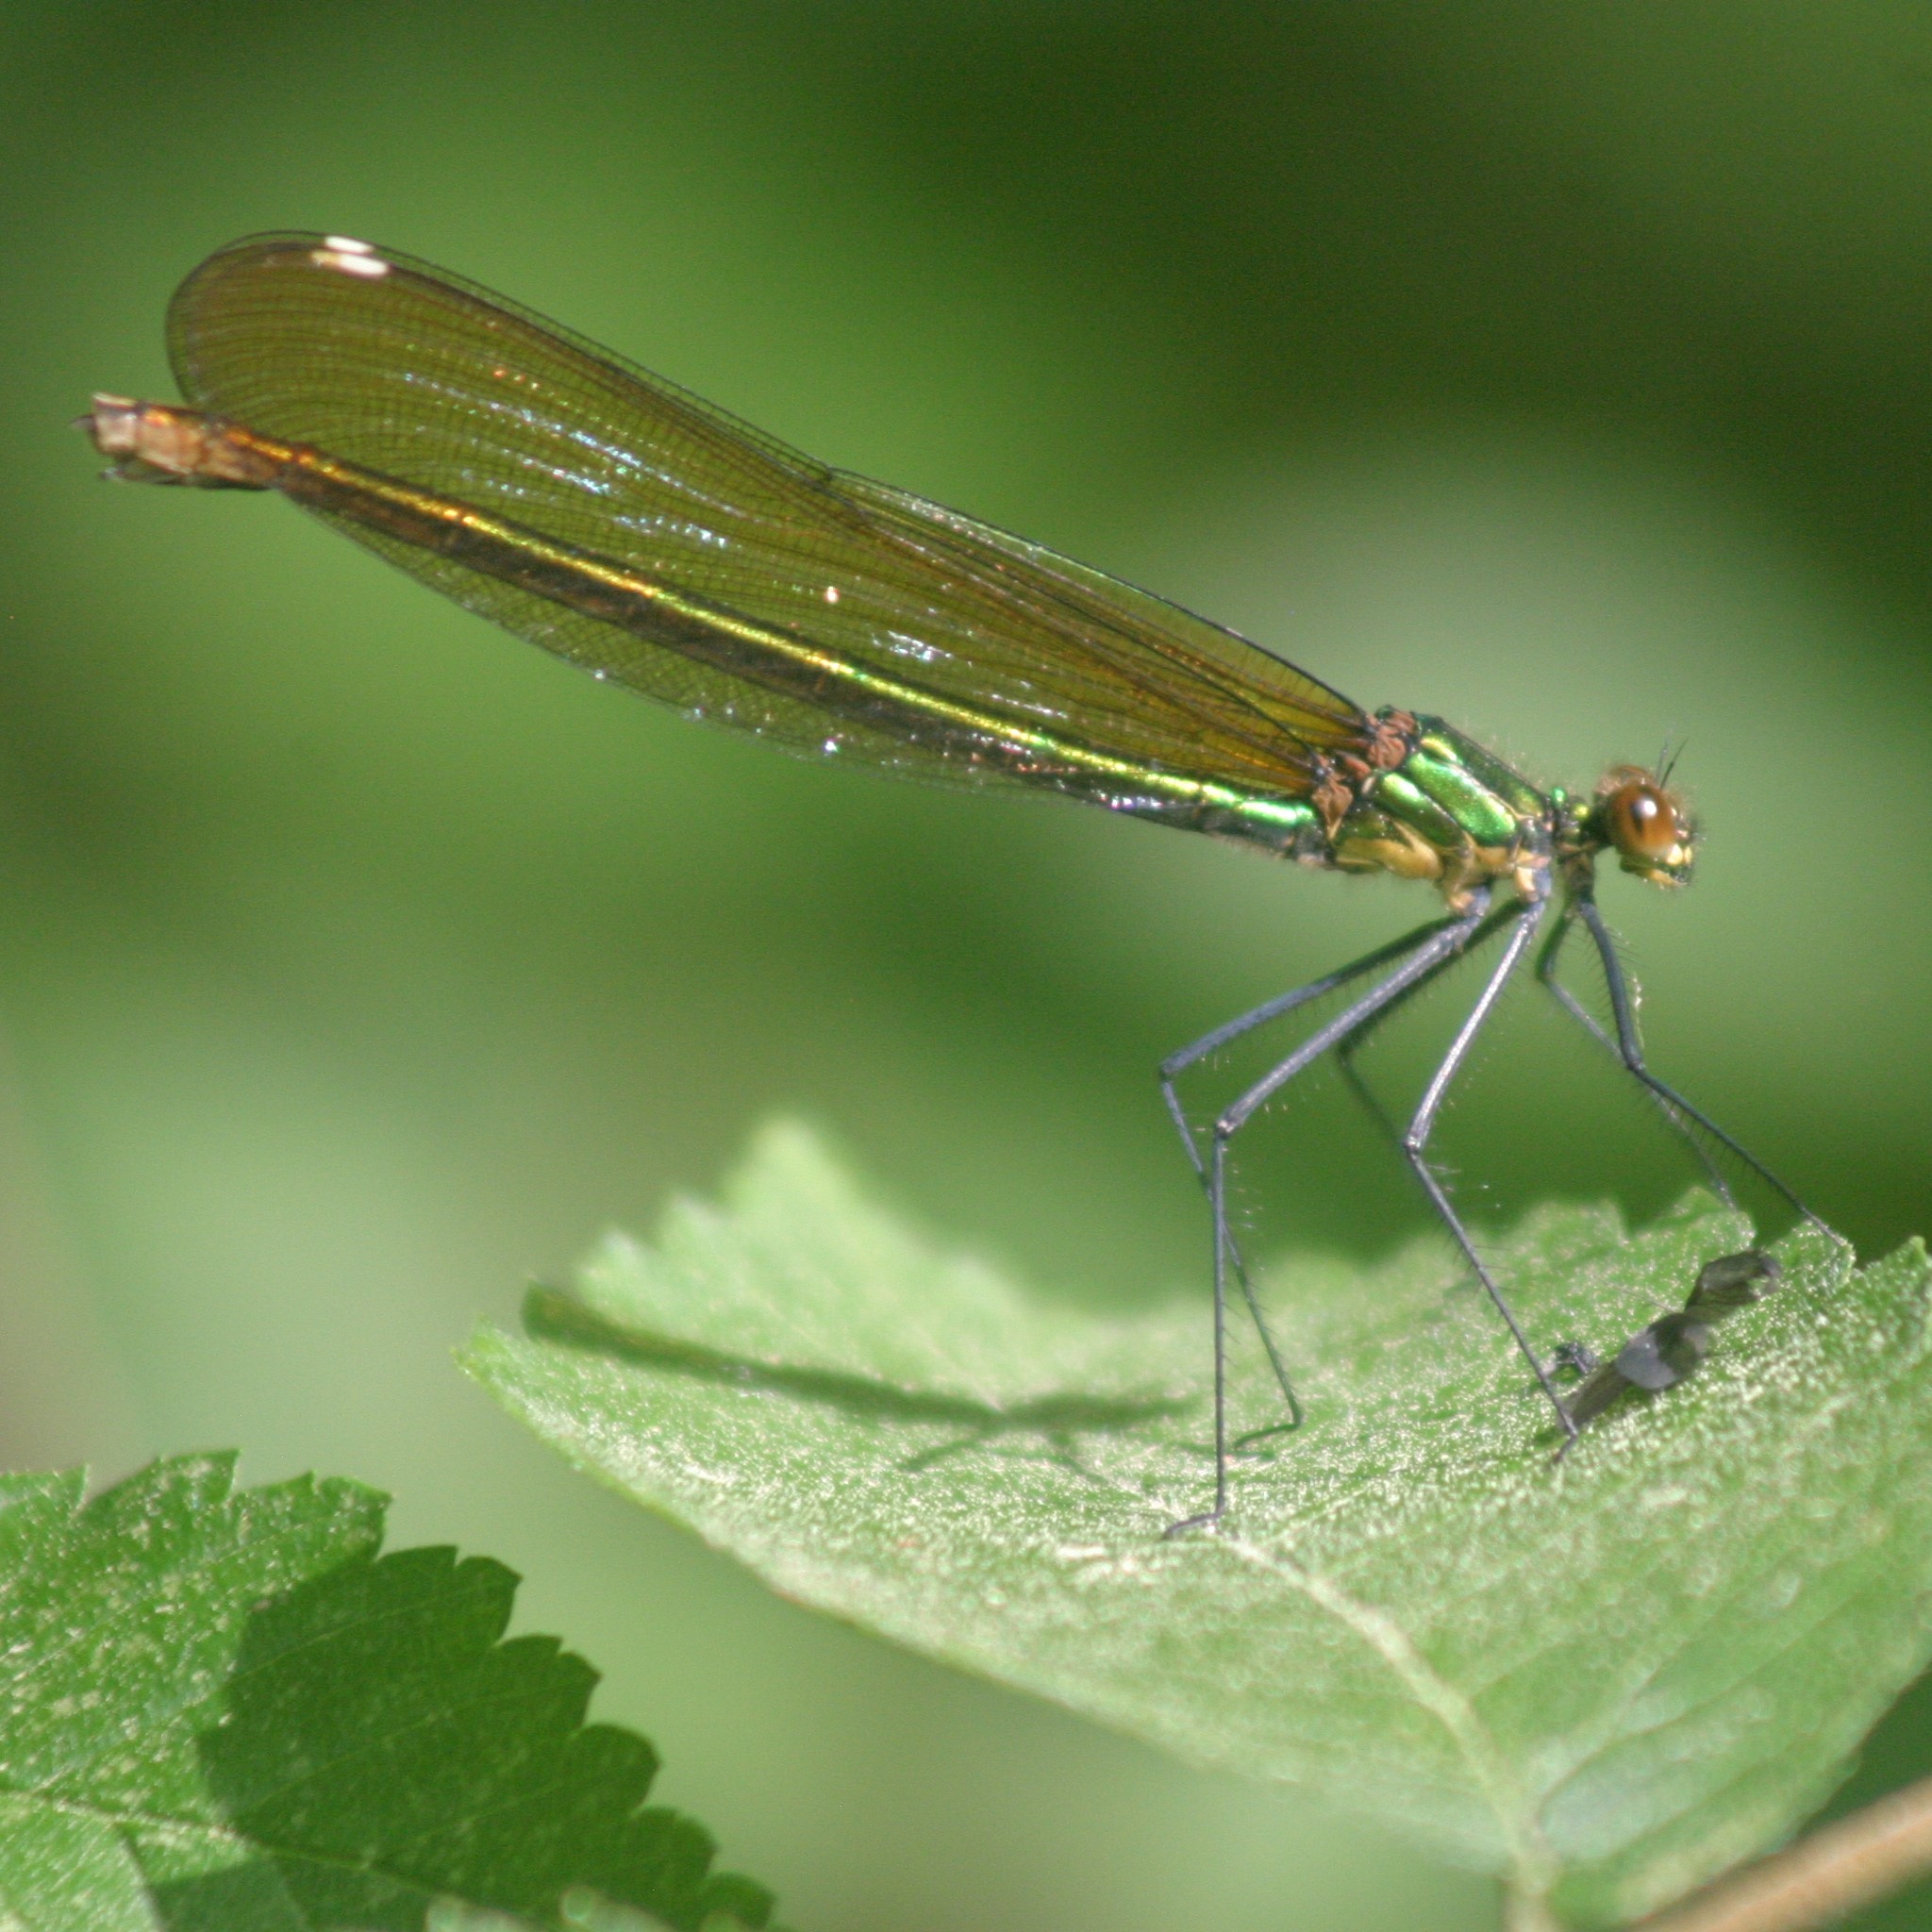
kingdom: Animalia
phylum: Arthropoda
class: Insecta
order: Odonata
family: Calopterygidae
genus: Calopteryx
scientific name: Calopteryx amata
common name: Superb jewelwing
